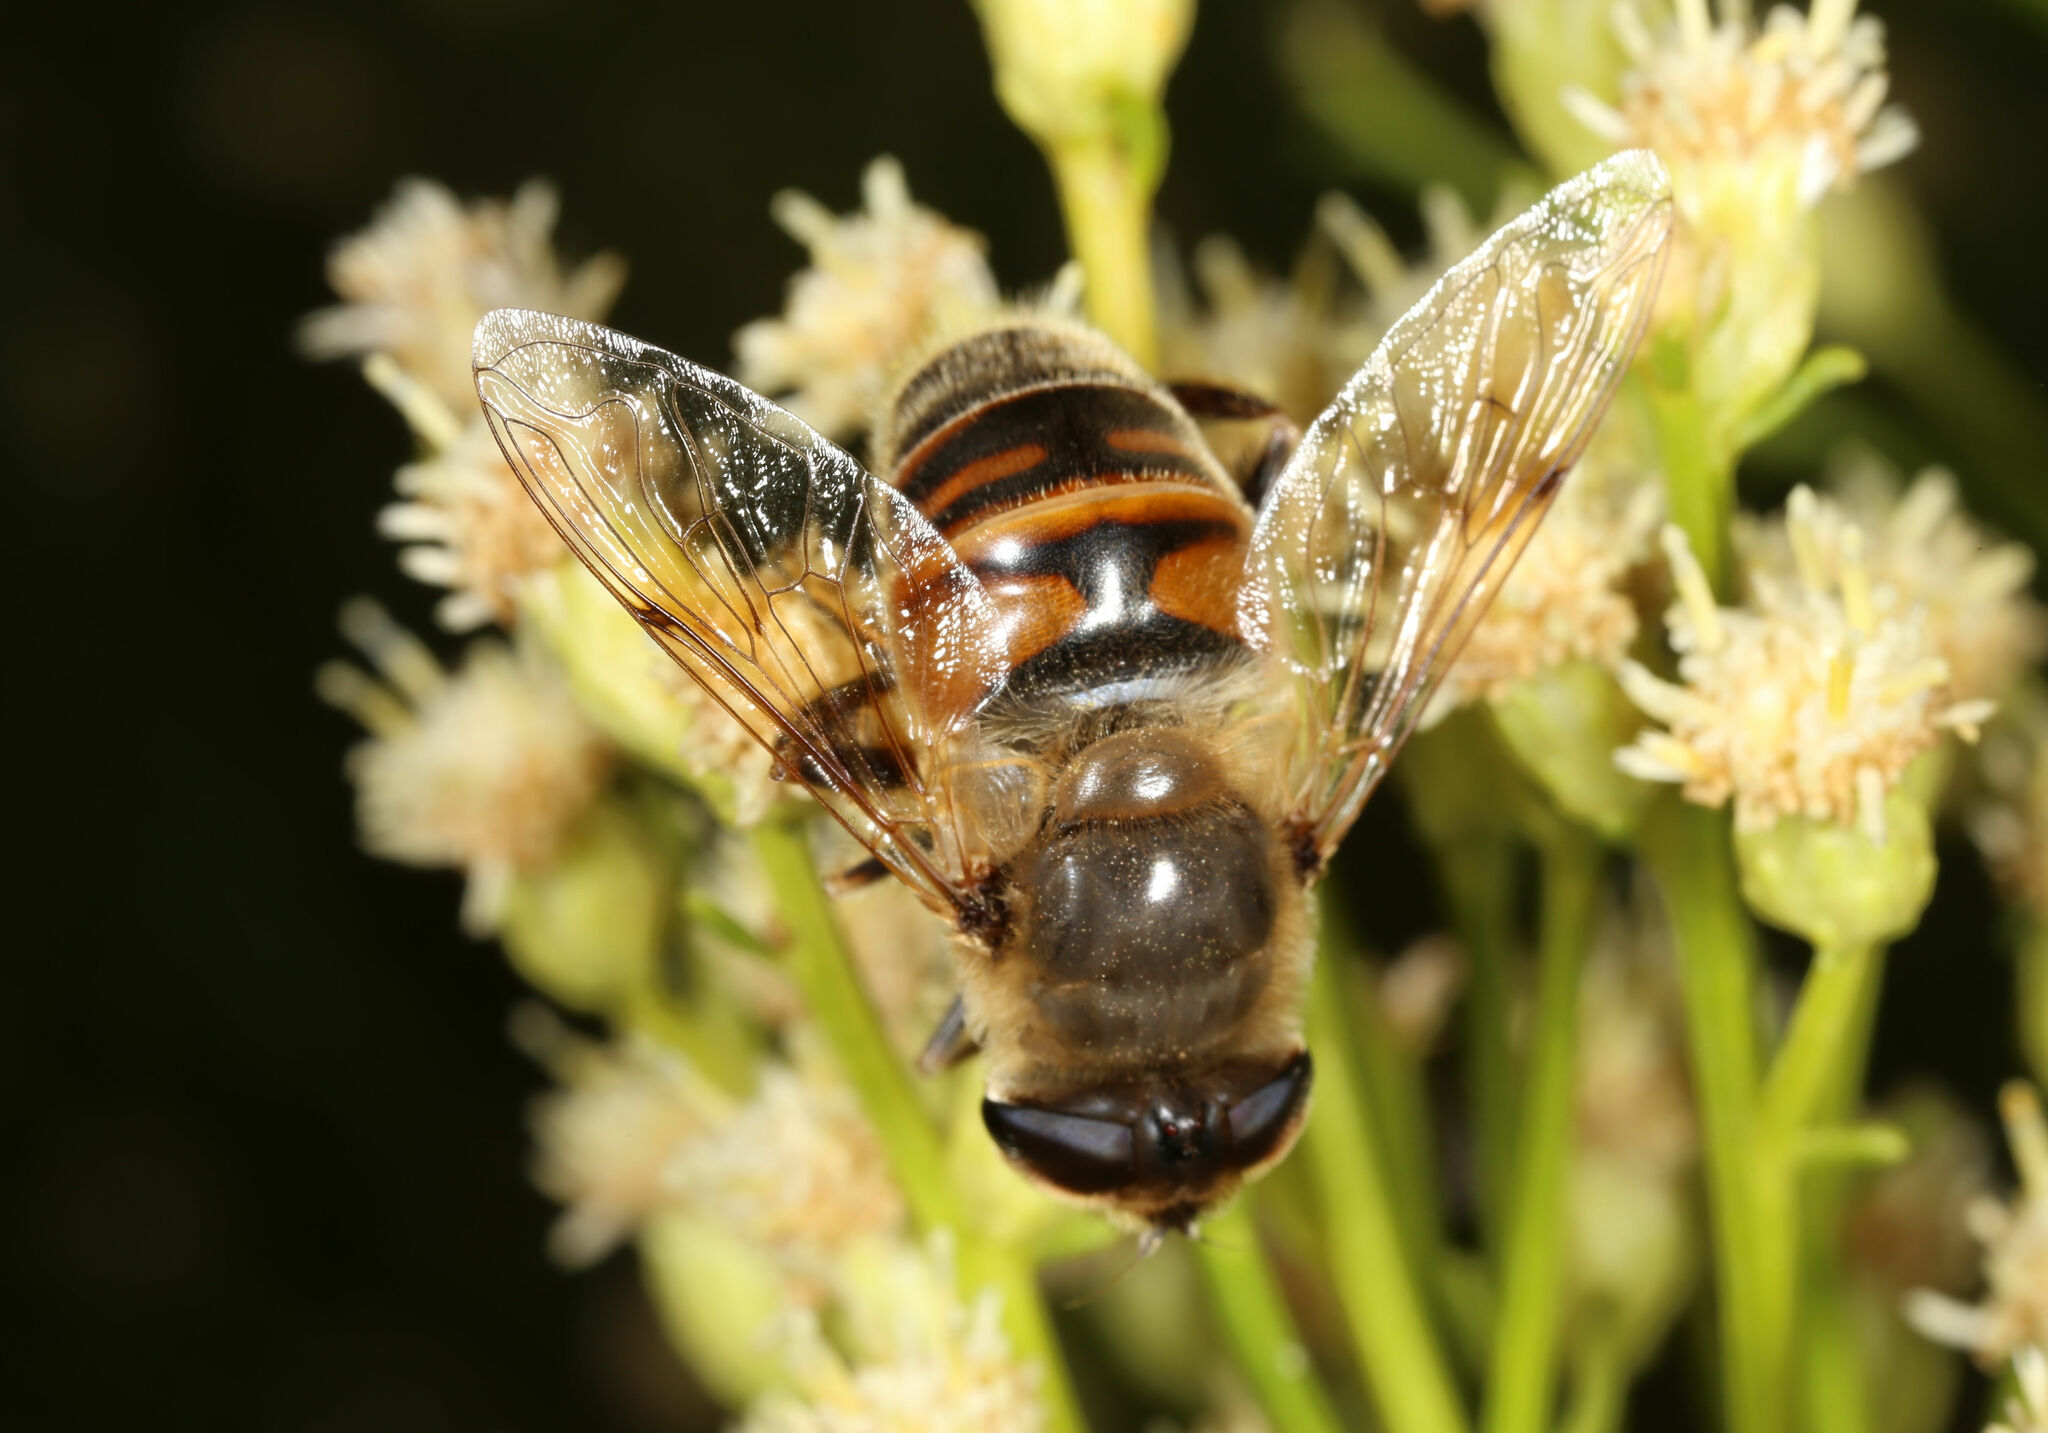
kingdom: Animalia
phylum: Arthropoda
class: Insecta
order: Diptera
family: Syrphidae
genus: Eristalis
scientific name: Eristalis tenax
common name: Drone fly
